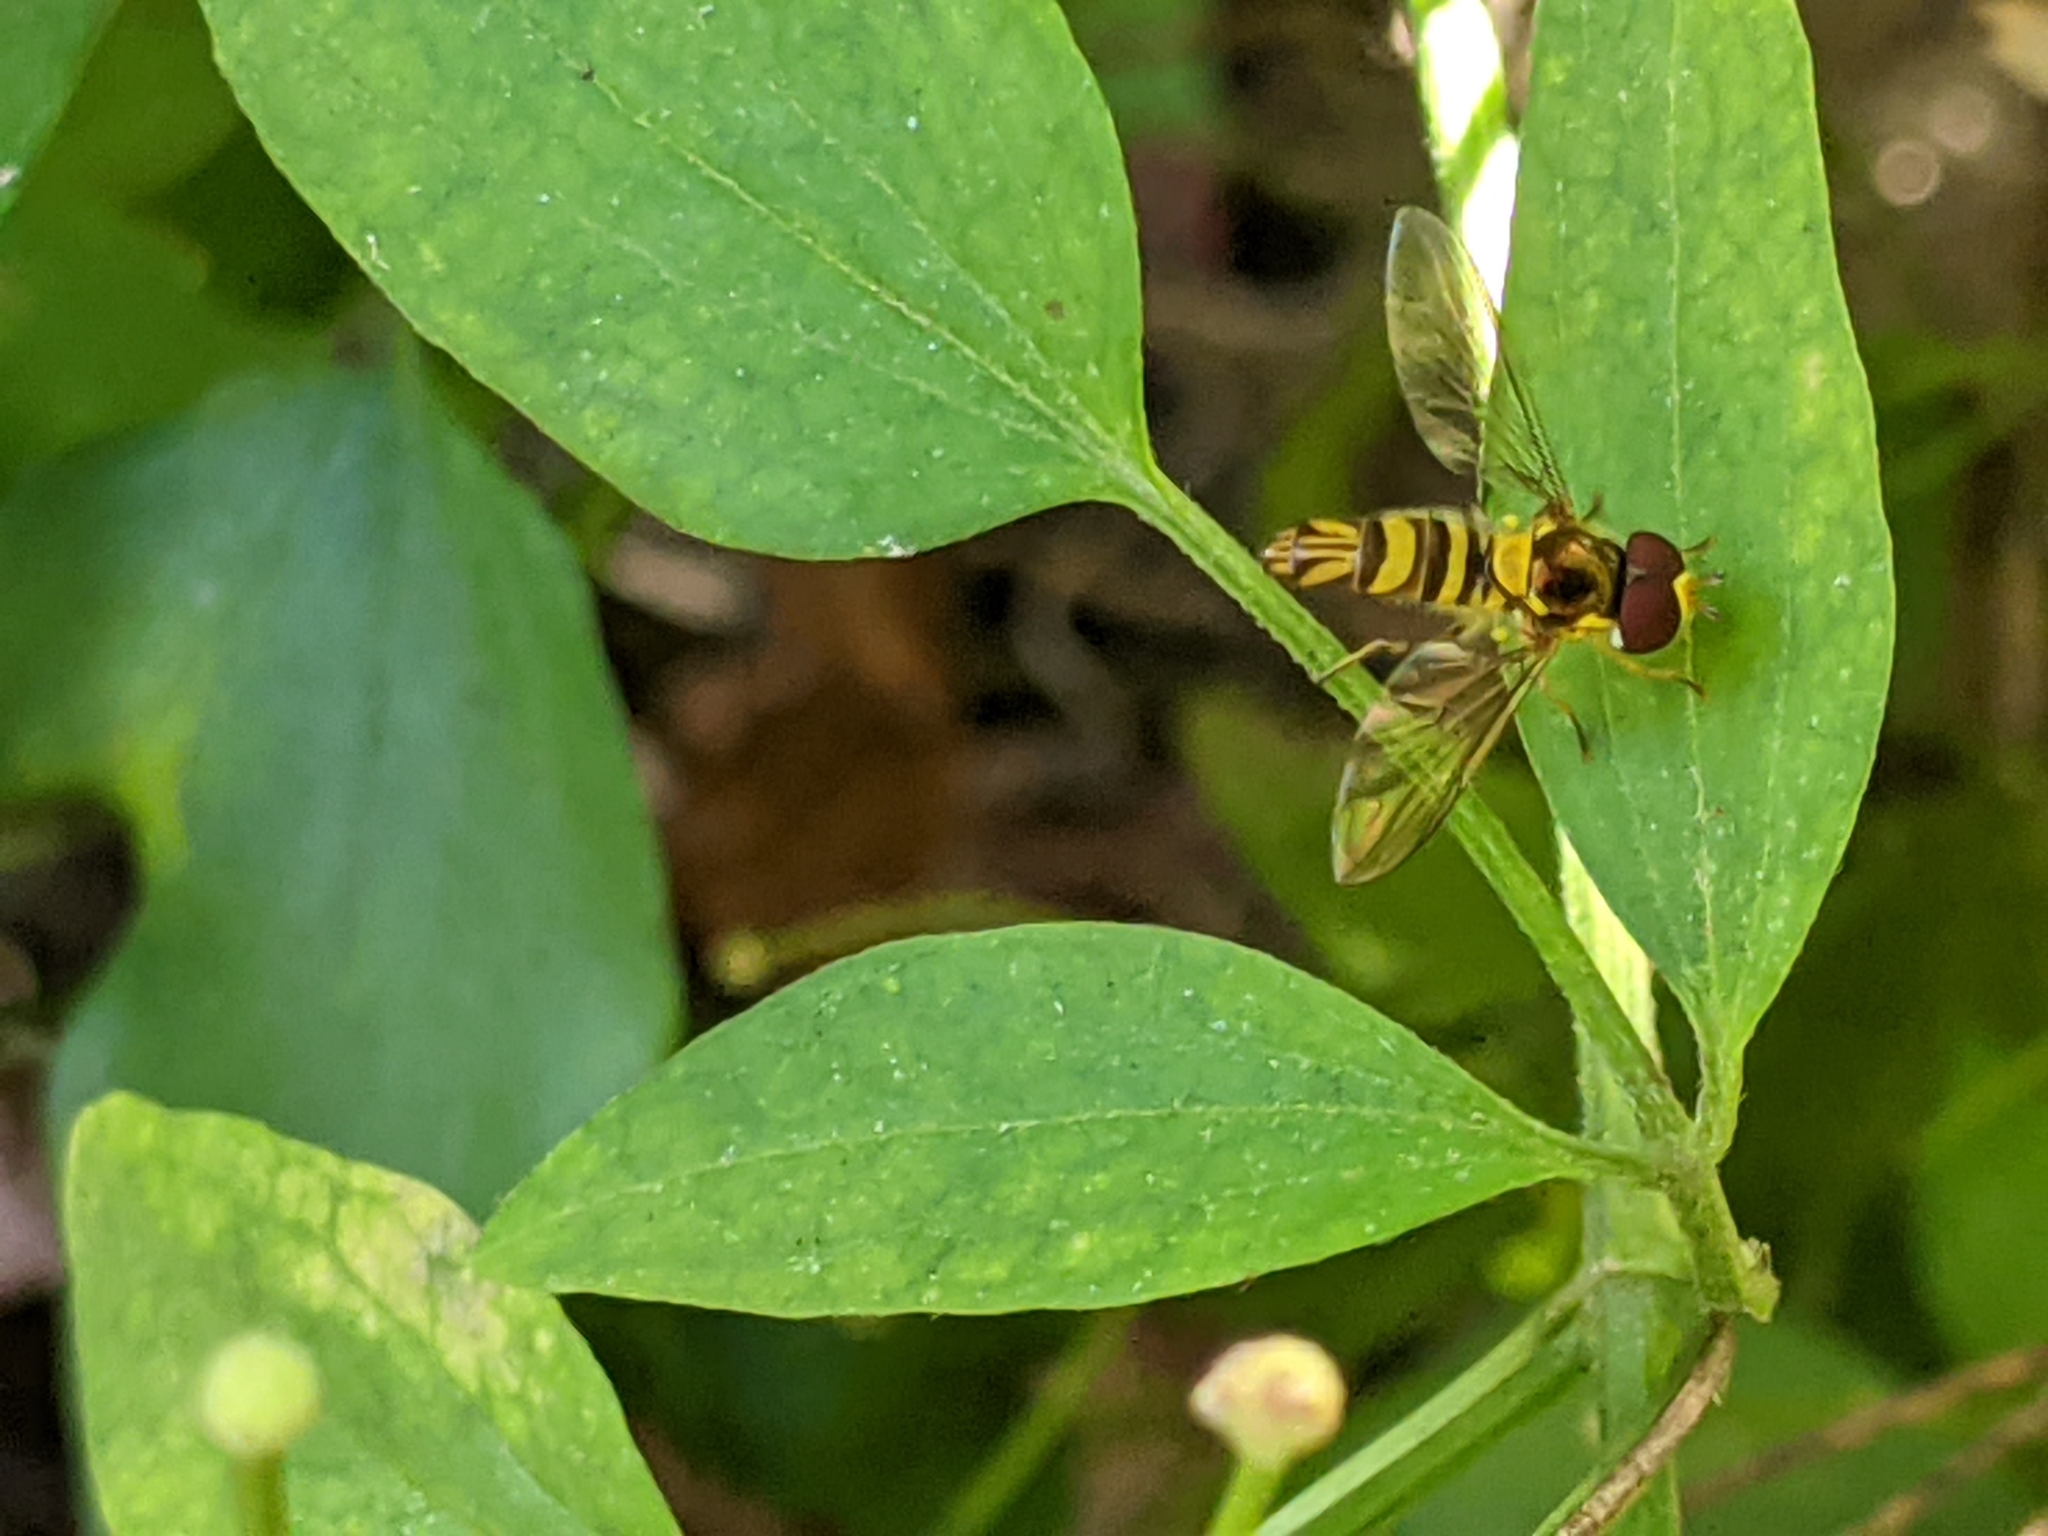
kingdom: Animalia
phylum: Arthropoda
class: Insecta
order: Diptera
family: Syrphidae
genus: Allograpta
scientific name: Allograpta obliqua
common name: Common oblique syrphid
